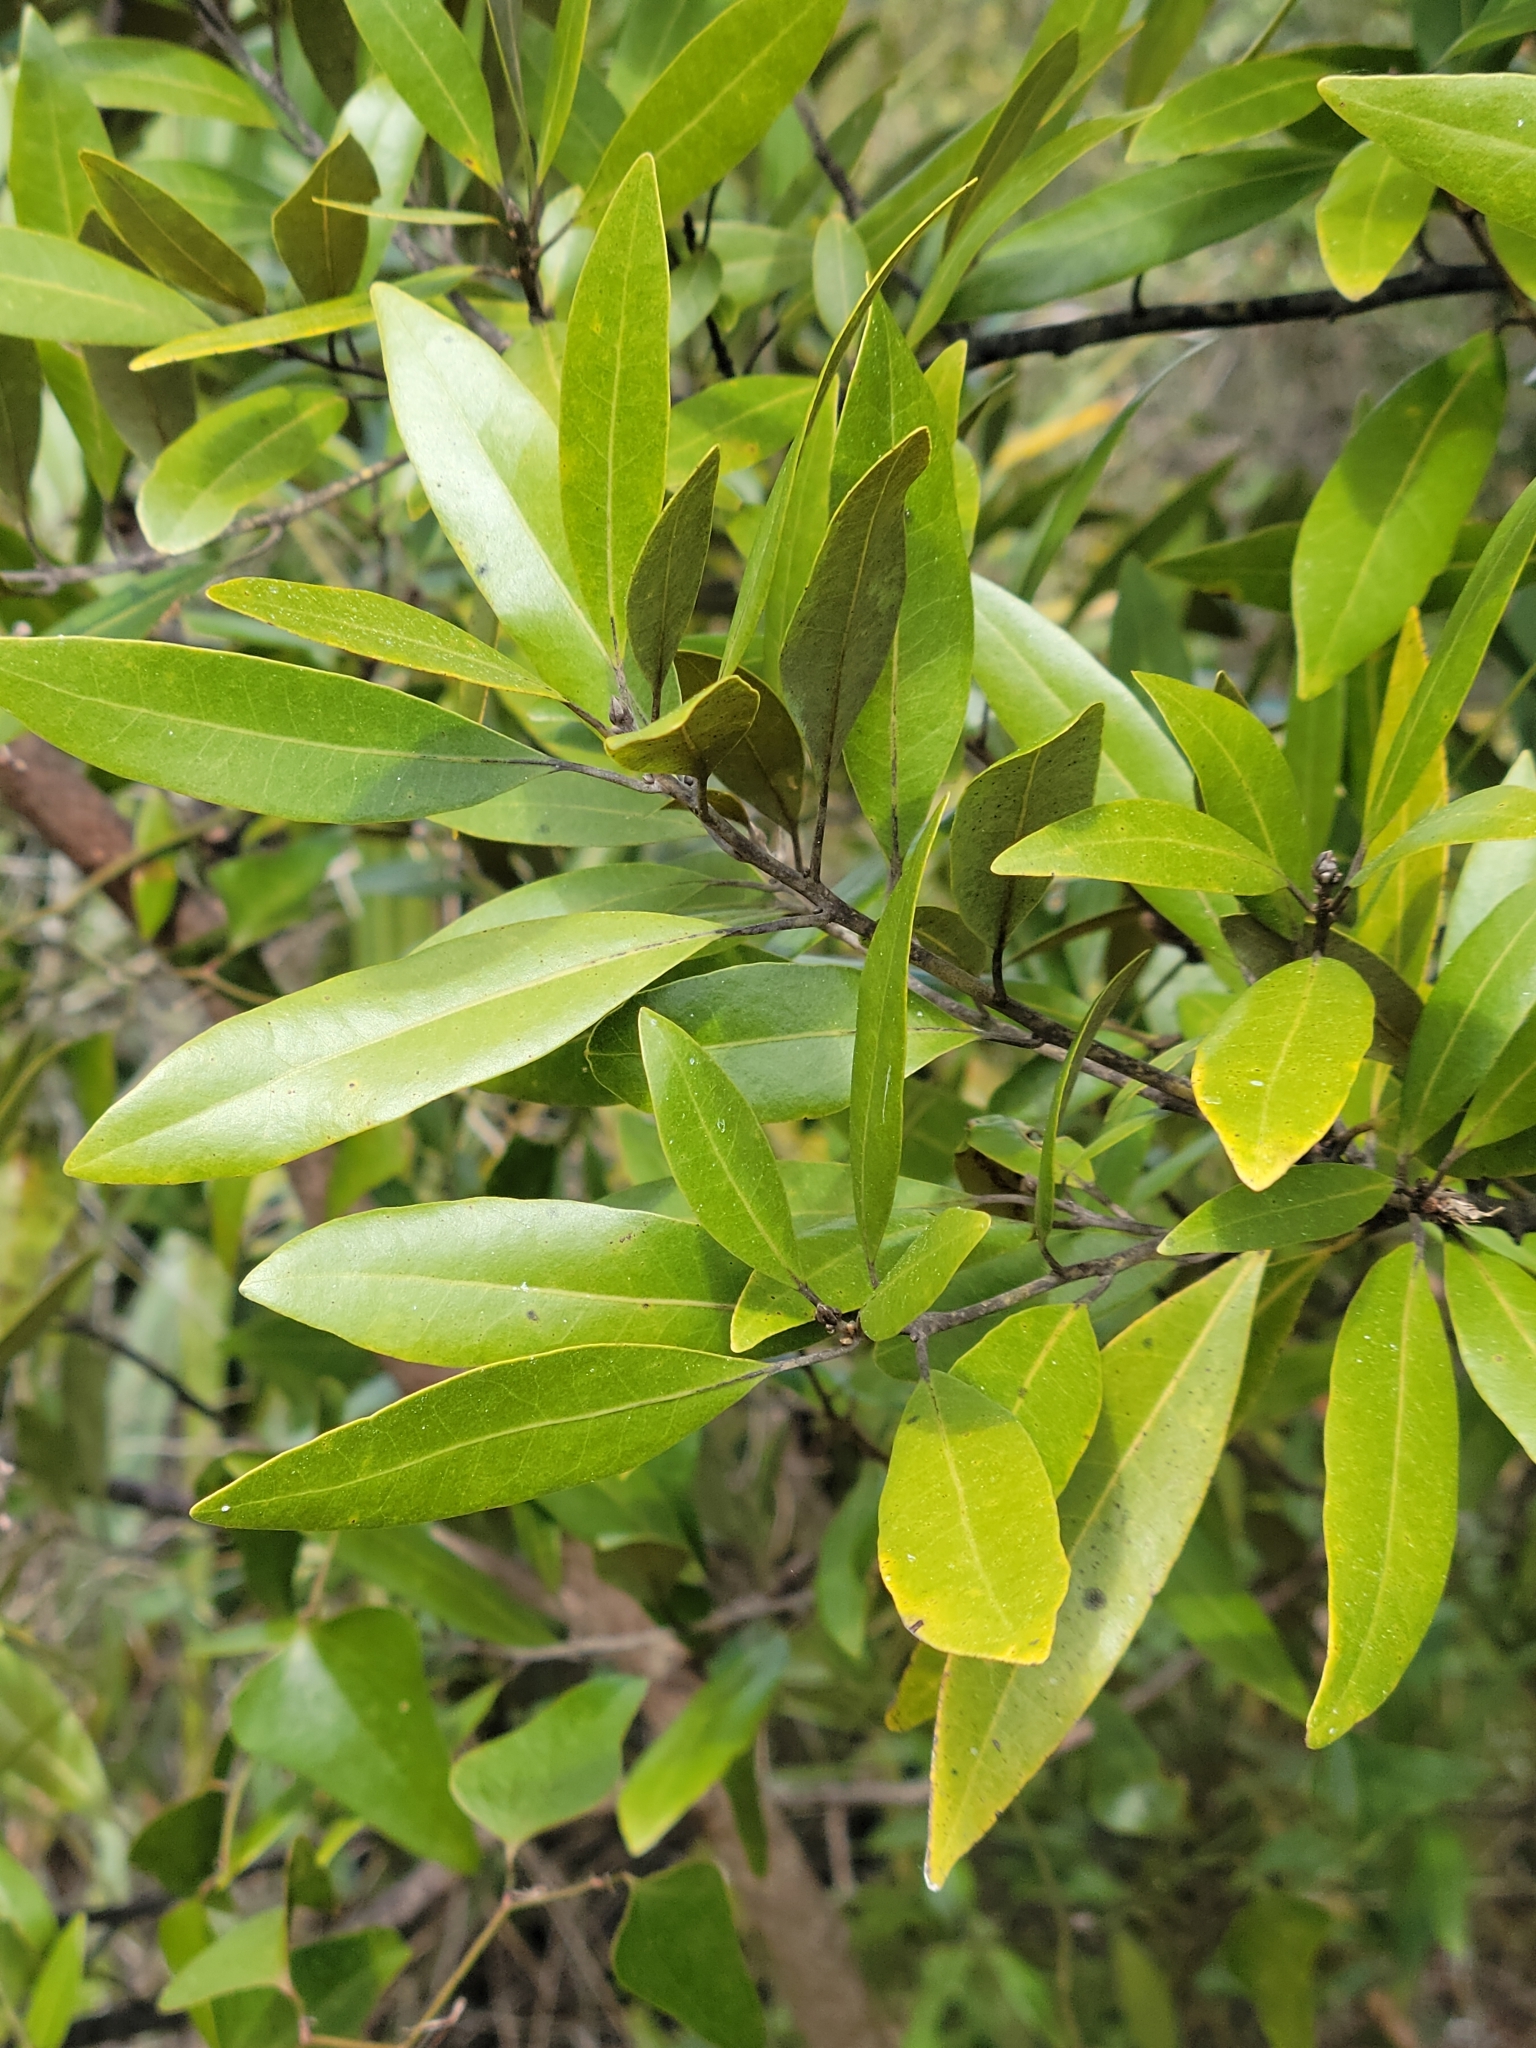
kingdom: Plantae
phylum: Tracheophyta
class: Magnoliopsida
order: Laurales
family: Lauraceae
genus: Persea
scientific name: Persea humilis
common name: Silkbay
